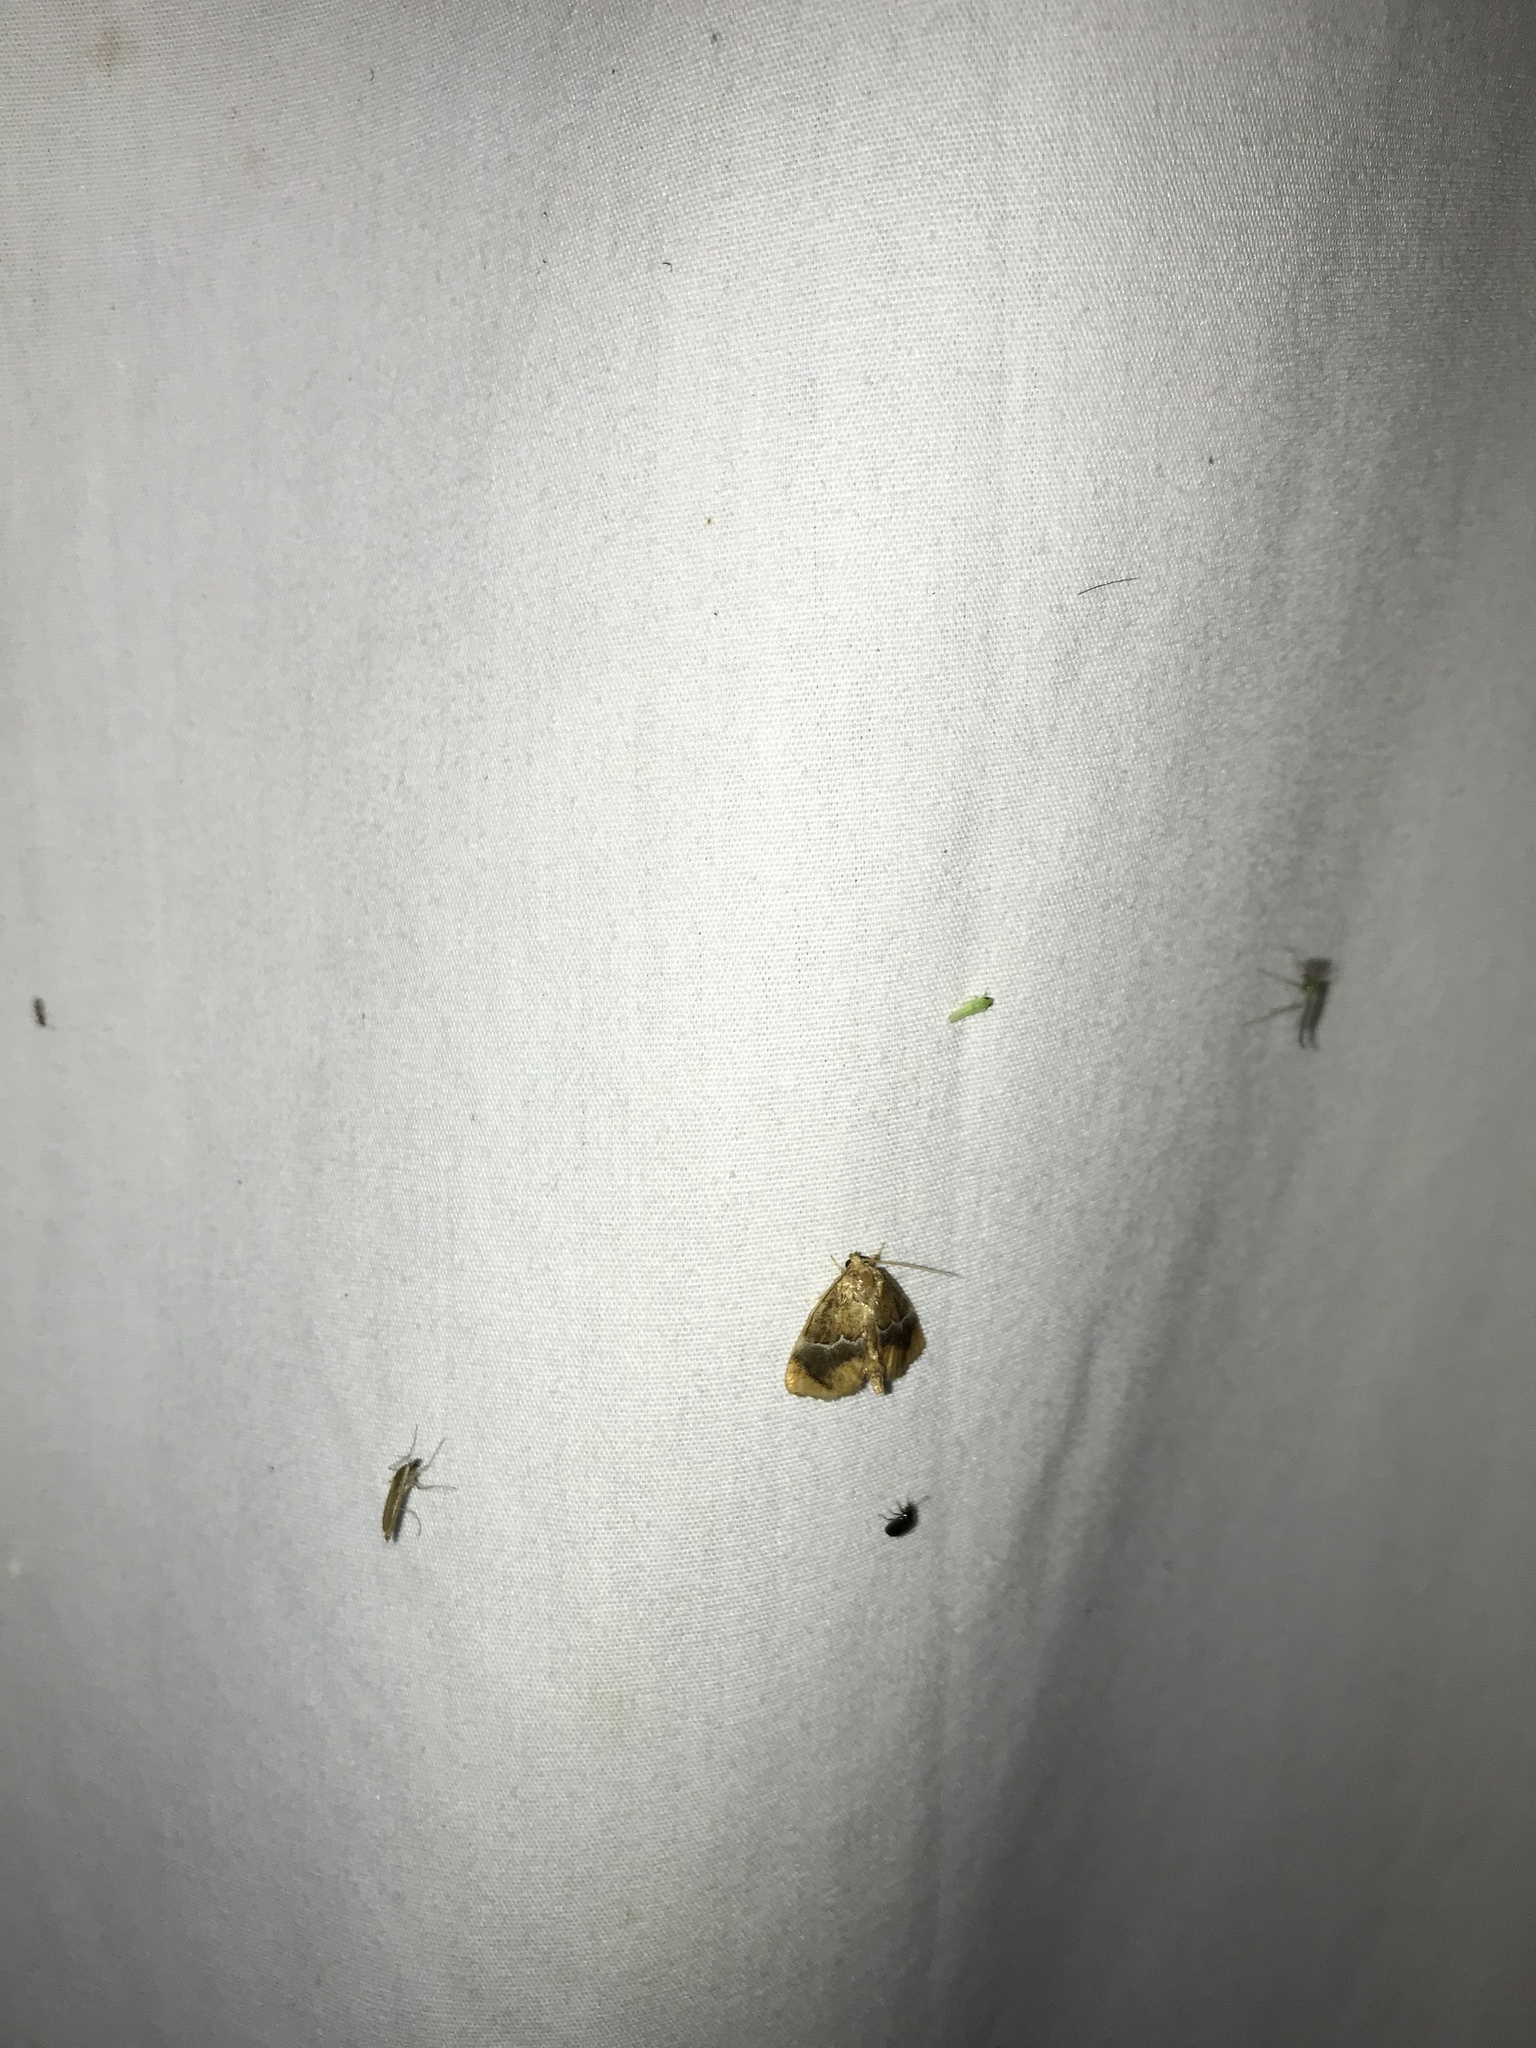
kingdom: Animalia
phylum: Arthropoda
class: Insecta
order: Lepidoptera
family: Limacodidae
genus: Lithacodes
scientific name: Lithacodes fasciola
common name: Yellow-shouldered slug moth
